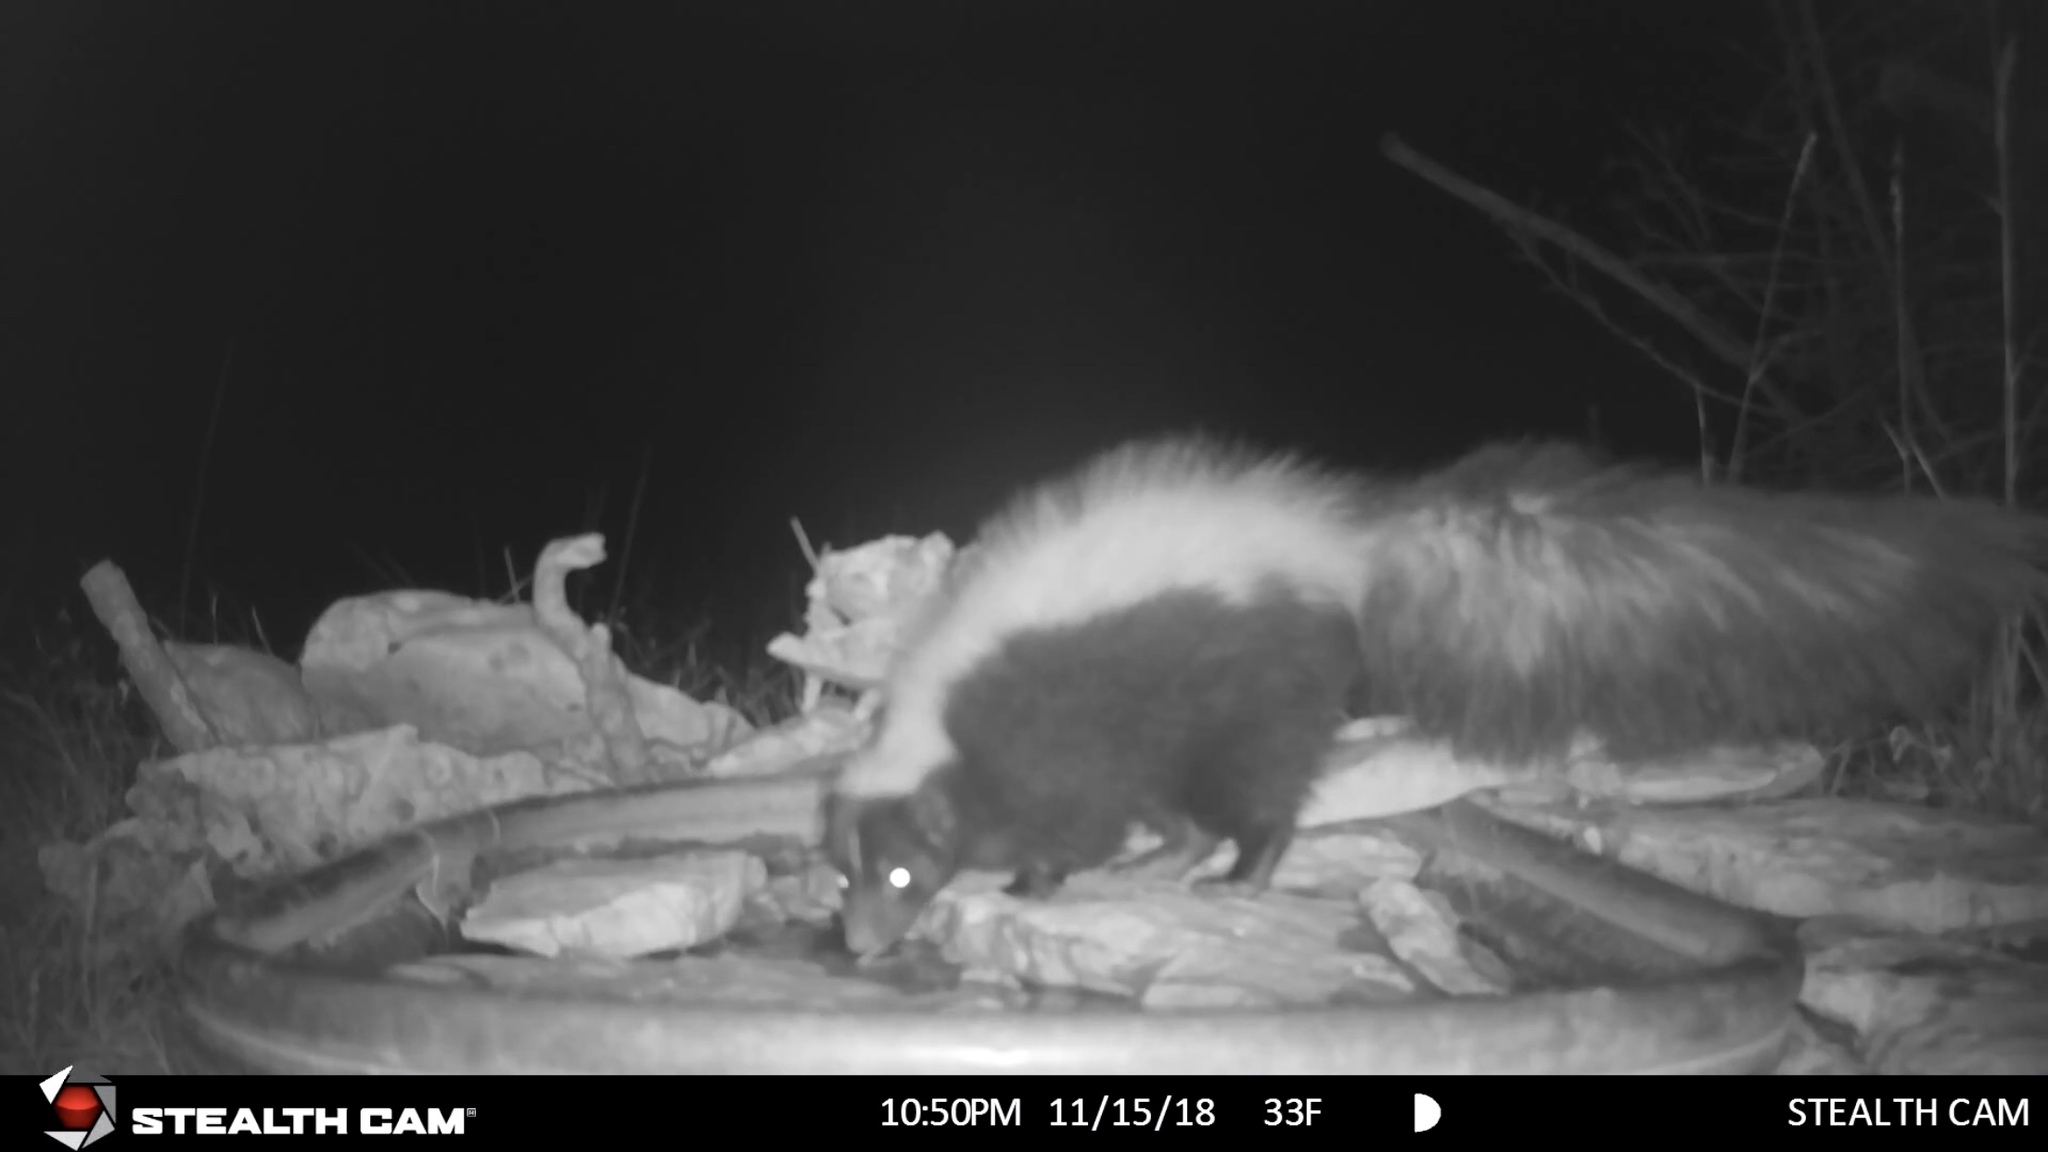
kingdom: Animalia
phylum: Chordata
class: Mammalia
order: Carnivora
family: Mephitidae
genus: Mephitis
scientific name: Mephitis mephitis
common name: Striped skunk
